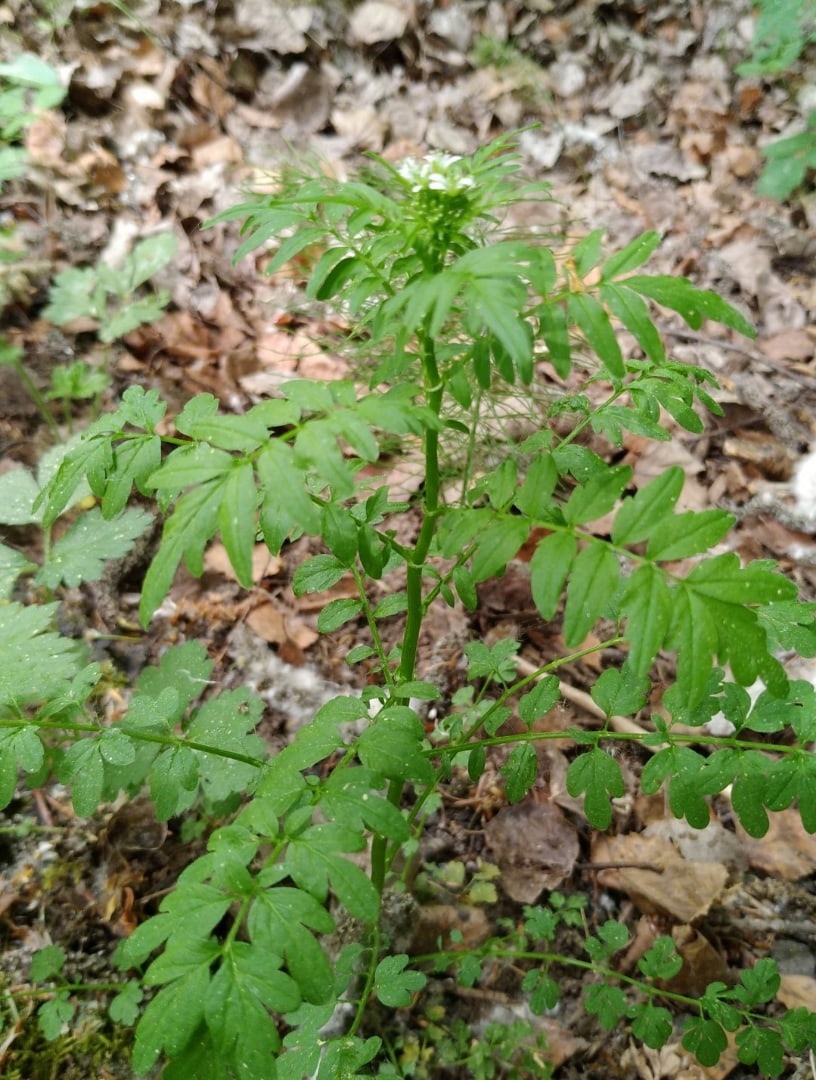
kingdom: Plantae
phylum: Tracheophyta
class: Magnoliopsida
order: Brassicales
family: Brassicaceae
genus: Cardamine
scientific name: Cardamine impatiens
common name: Narrow-leaved bitter-cress
